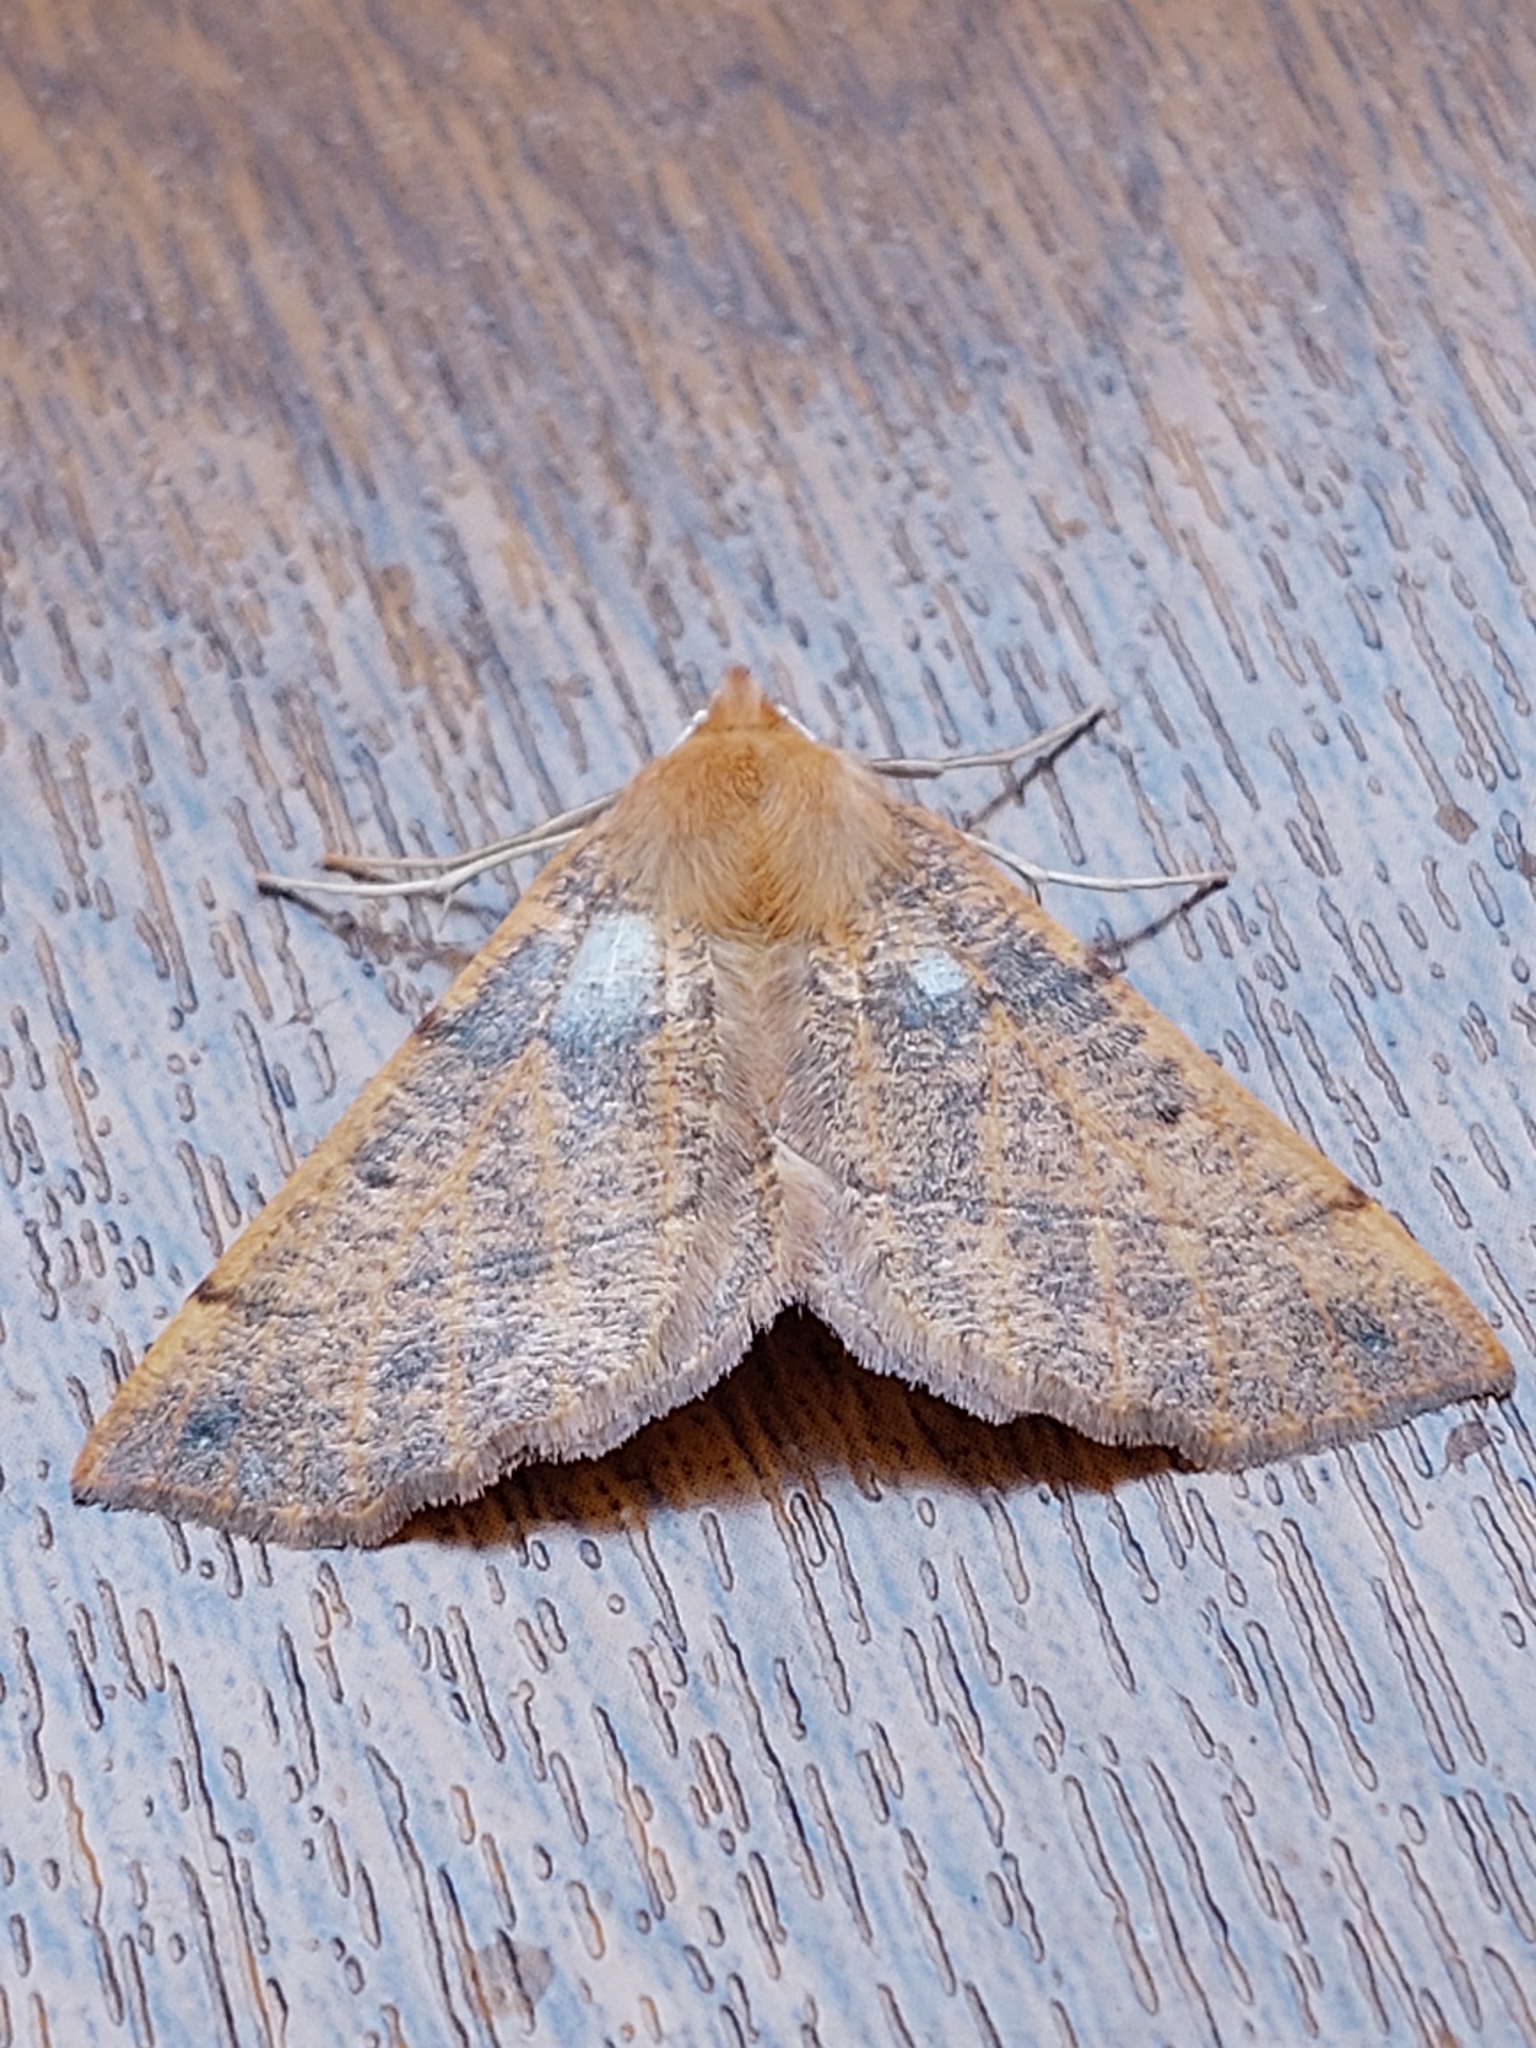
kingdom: Animalia
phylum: Arthropoda
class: Insecta
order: Lepidoptera
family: Geometridae
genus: Colotois
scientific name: Colotois pennaria
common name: Feathered thorn
